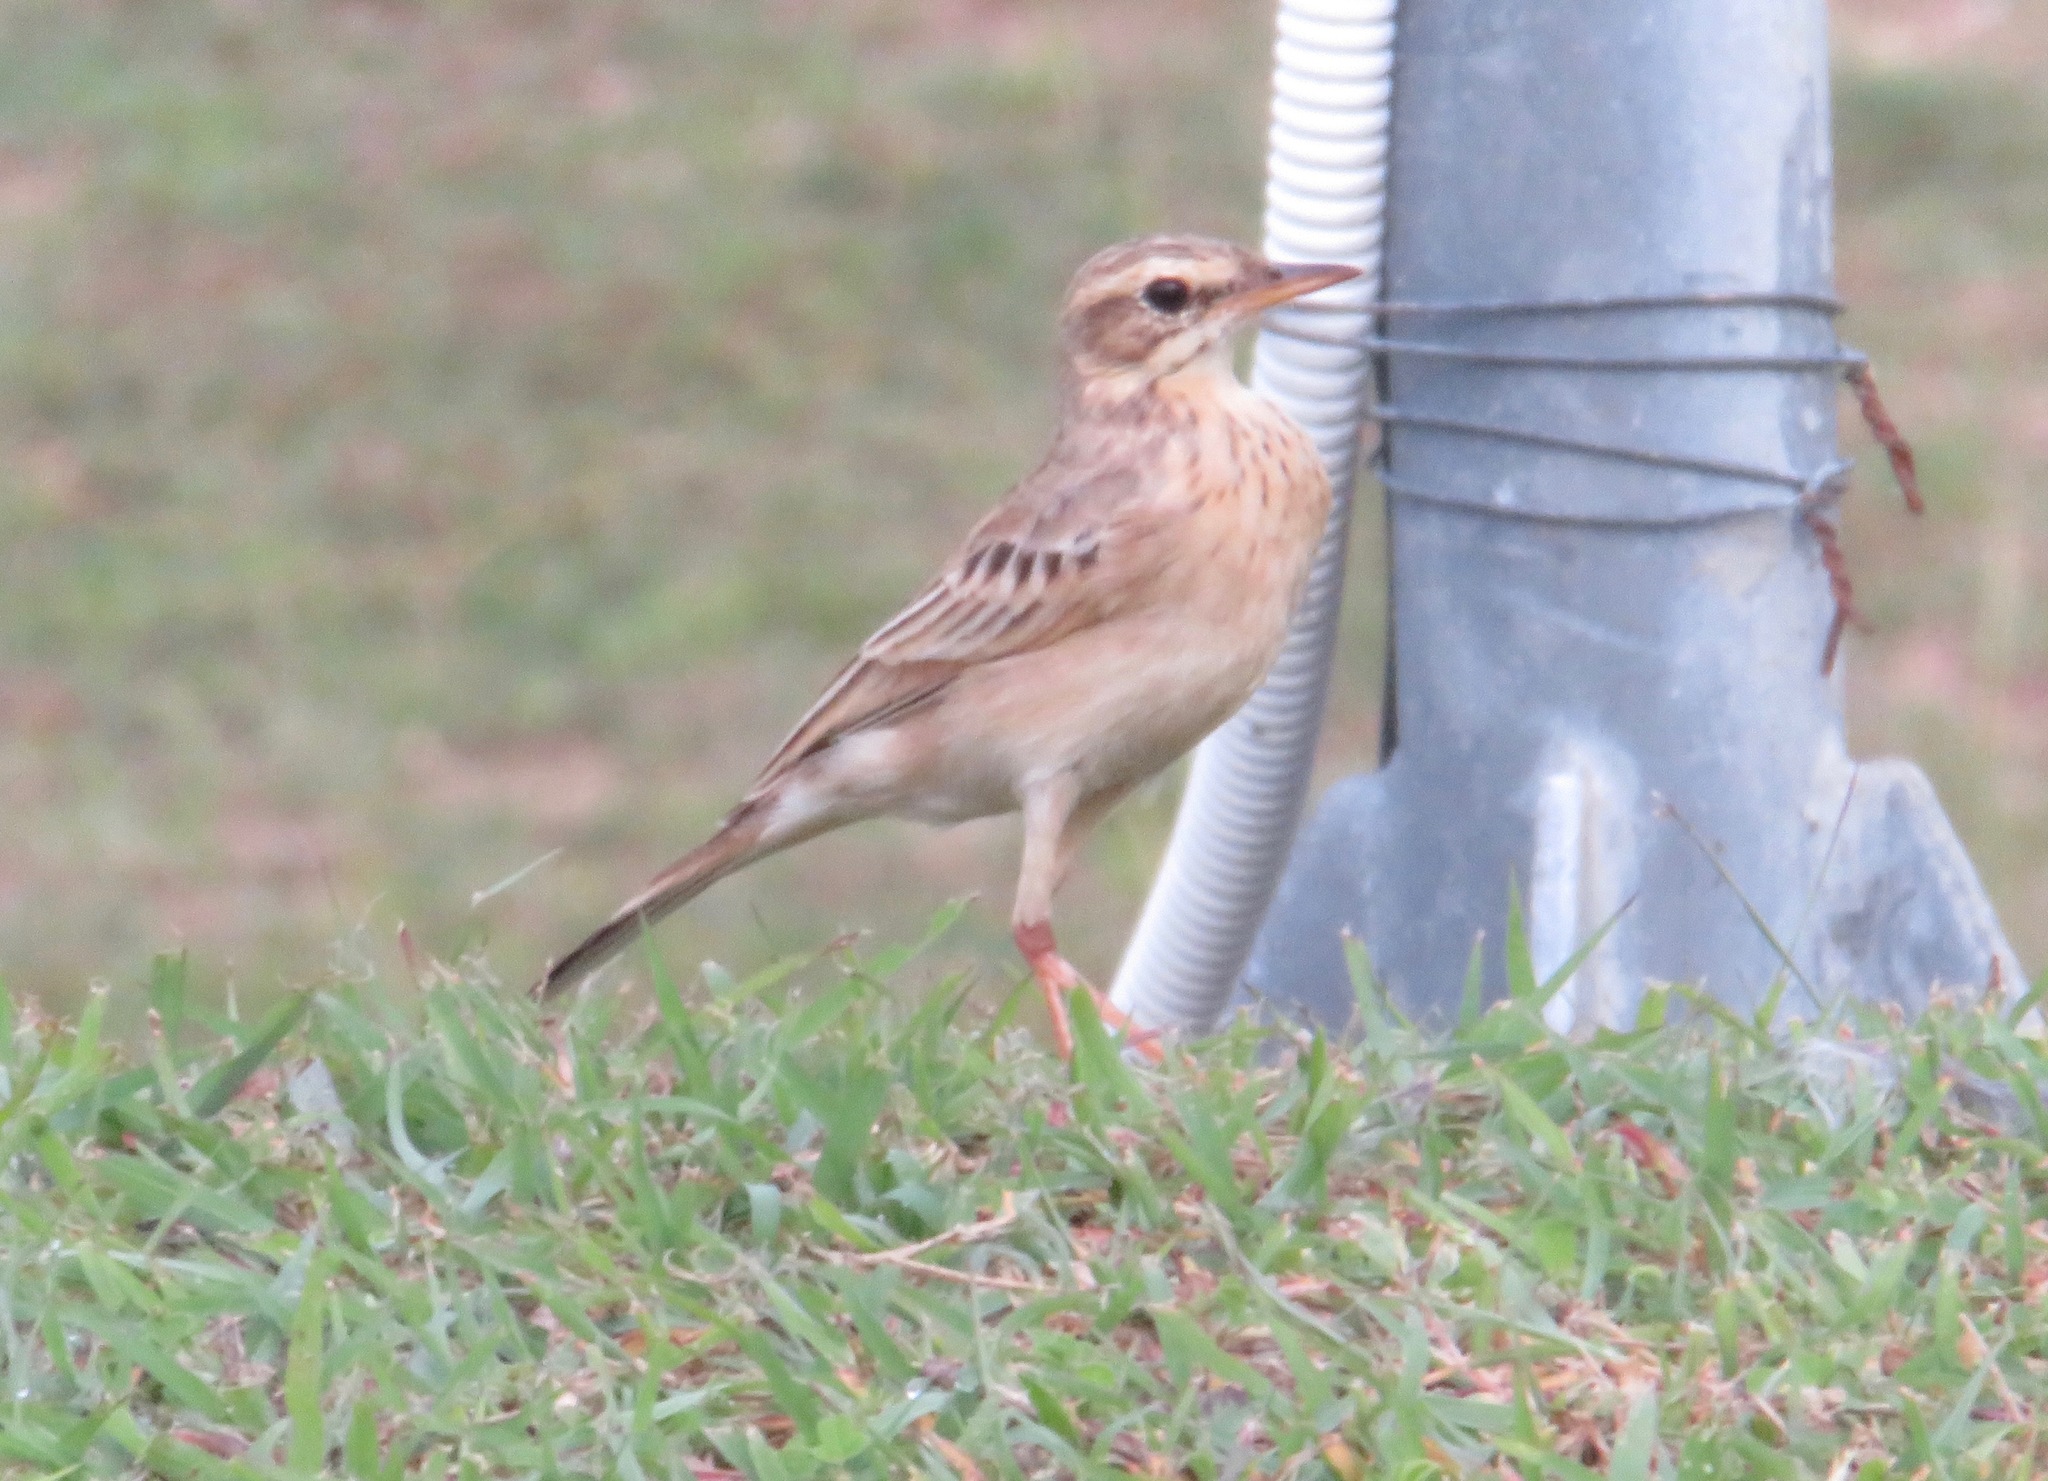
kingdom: Animalia
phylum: Chordata
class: Aves
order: Passeriformes
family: Motacillidae
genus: Anthus
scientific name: Anthus rufulus
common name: Paddyfield pipit
